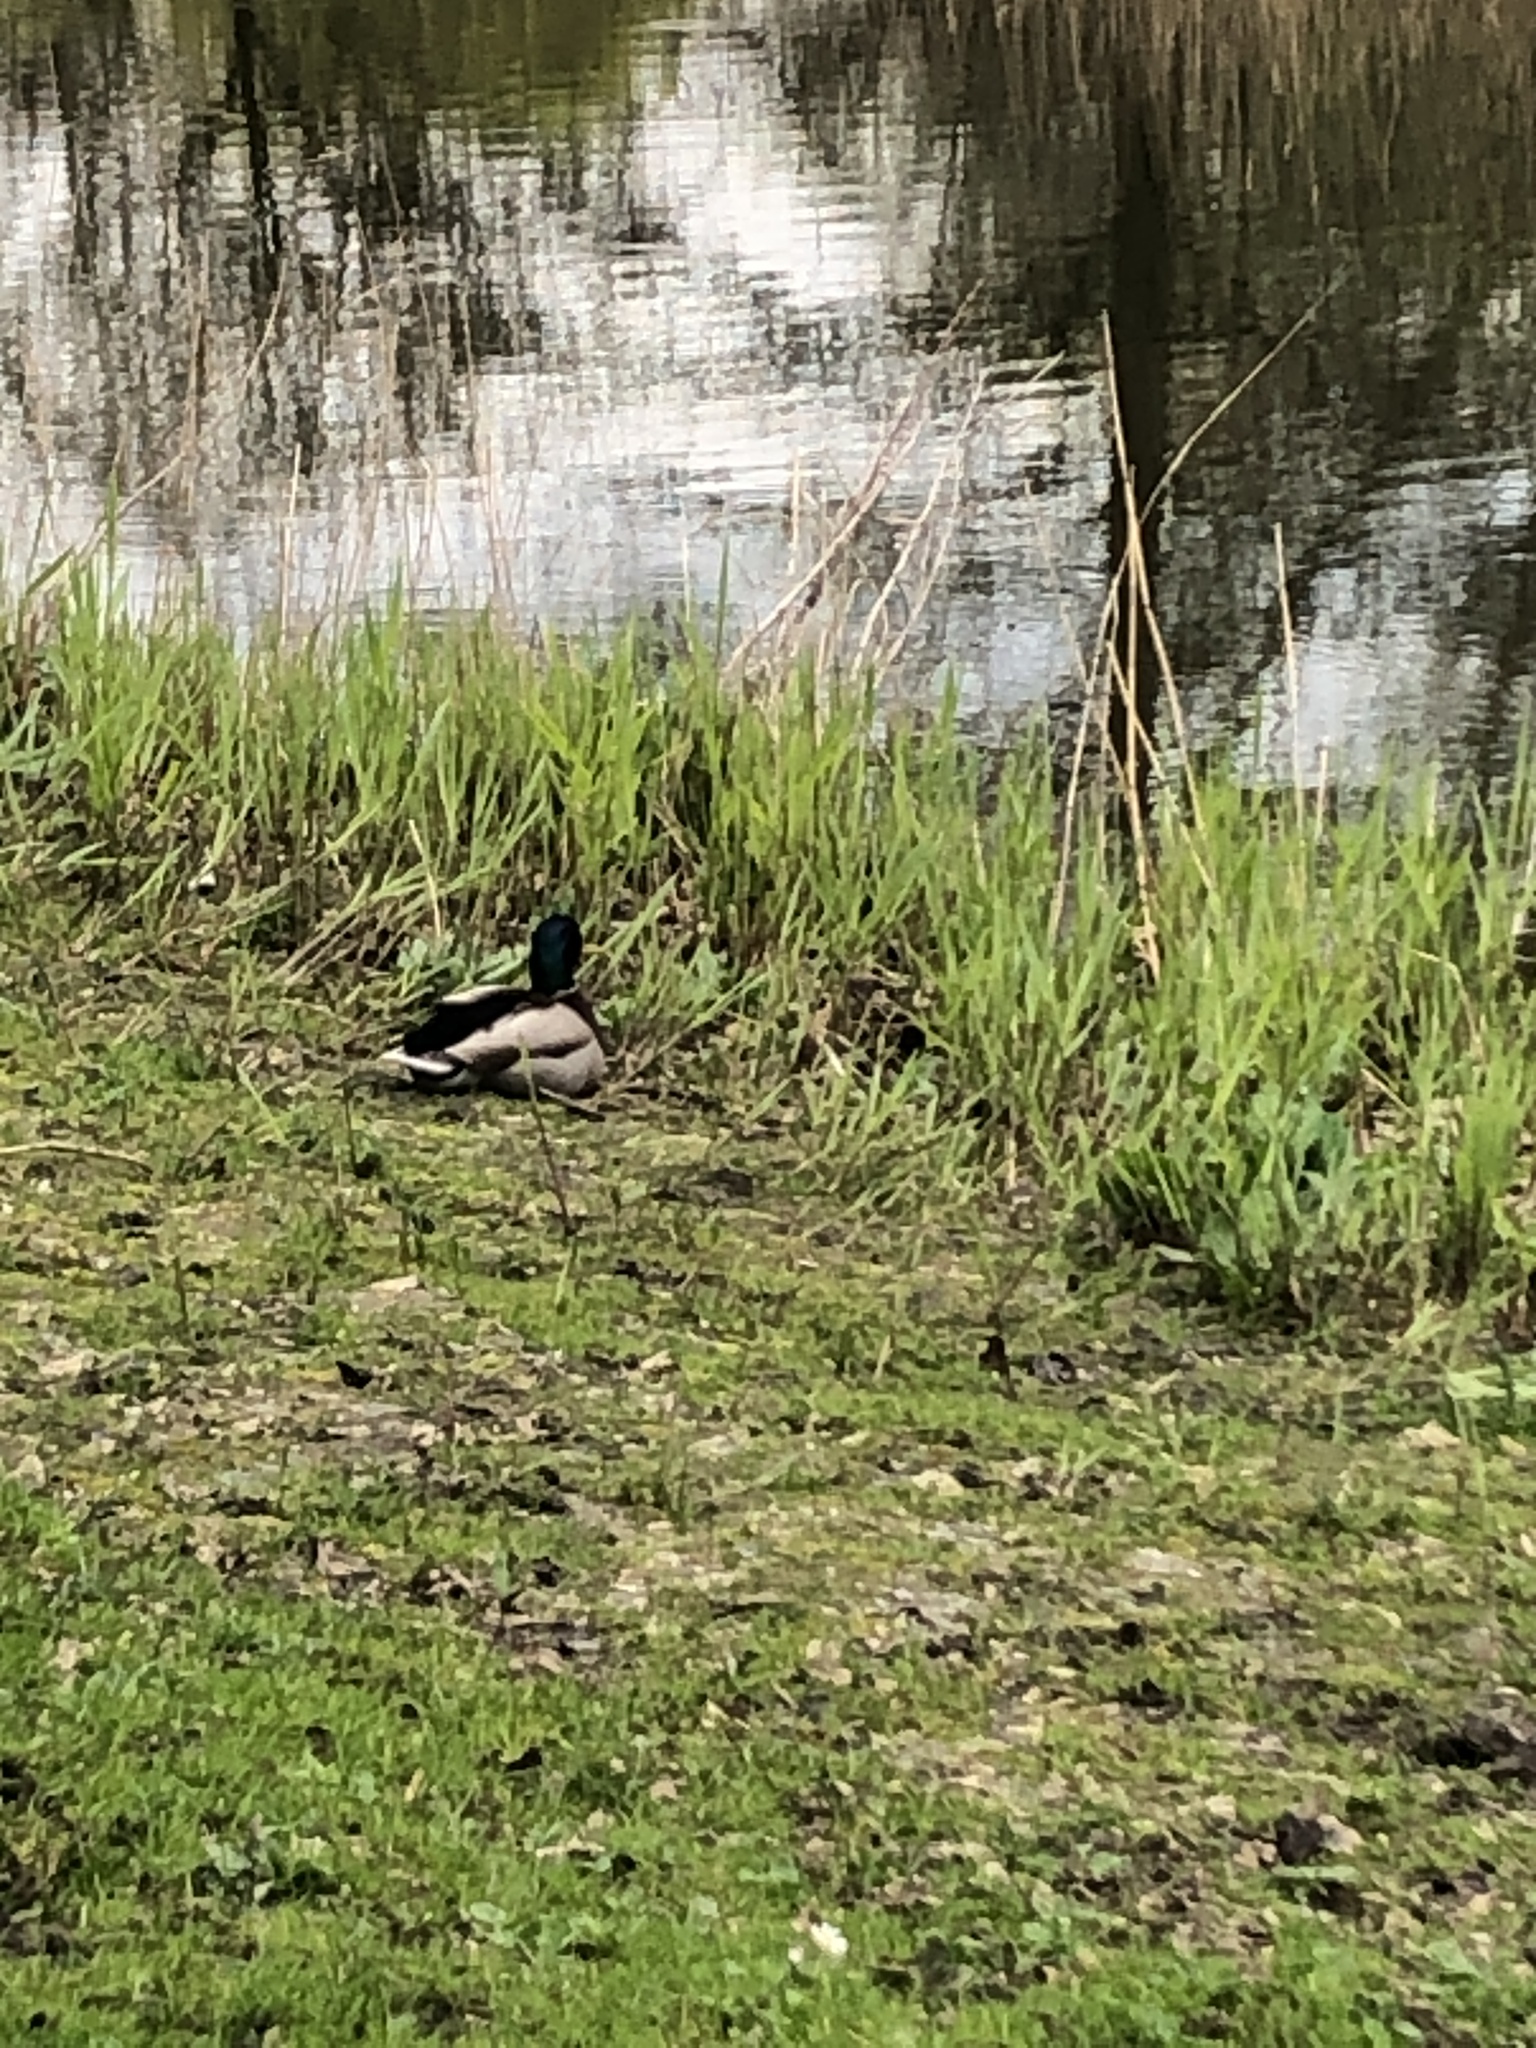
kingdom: Animalia
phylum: Chordata
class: Aves
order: Anseriformes
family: Anatidae
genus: Anas
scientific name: Anas platyrhynchos
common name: Mallard
